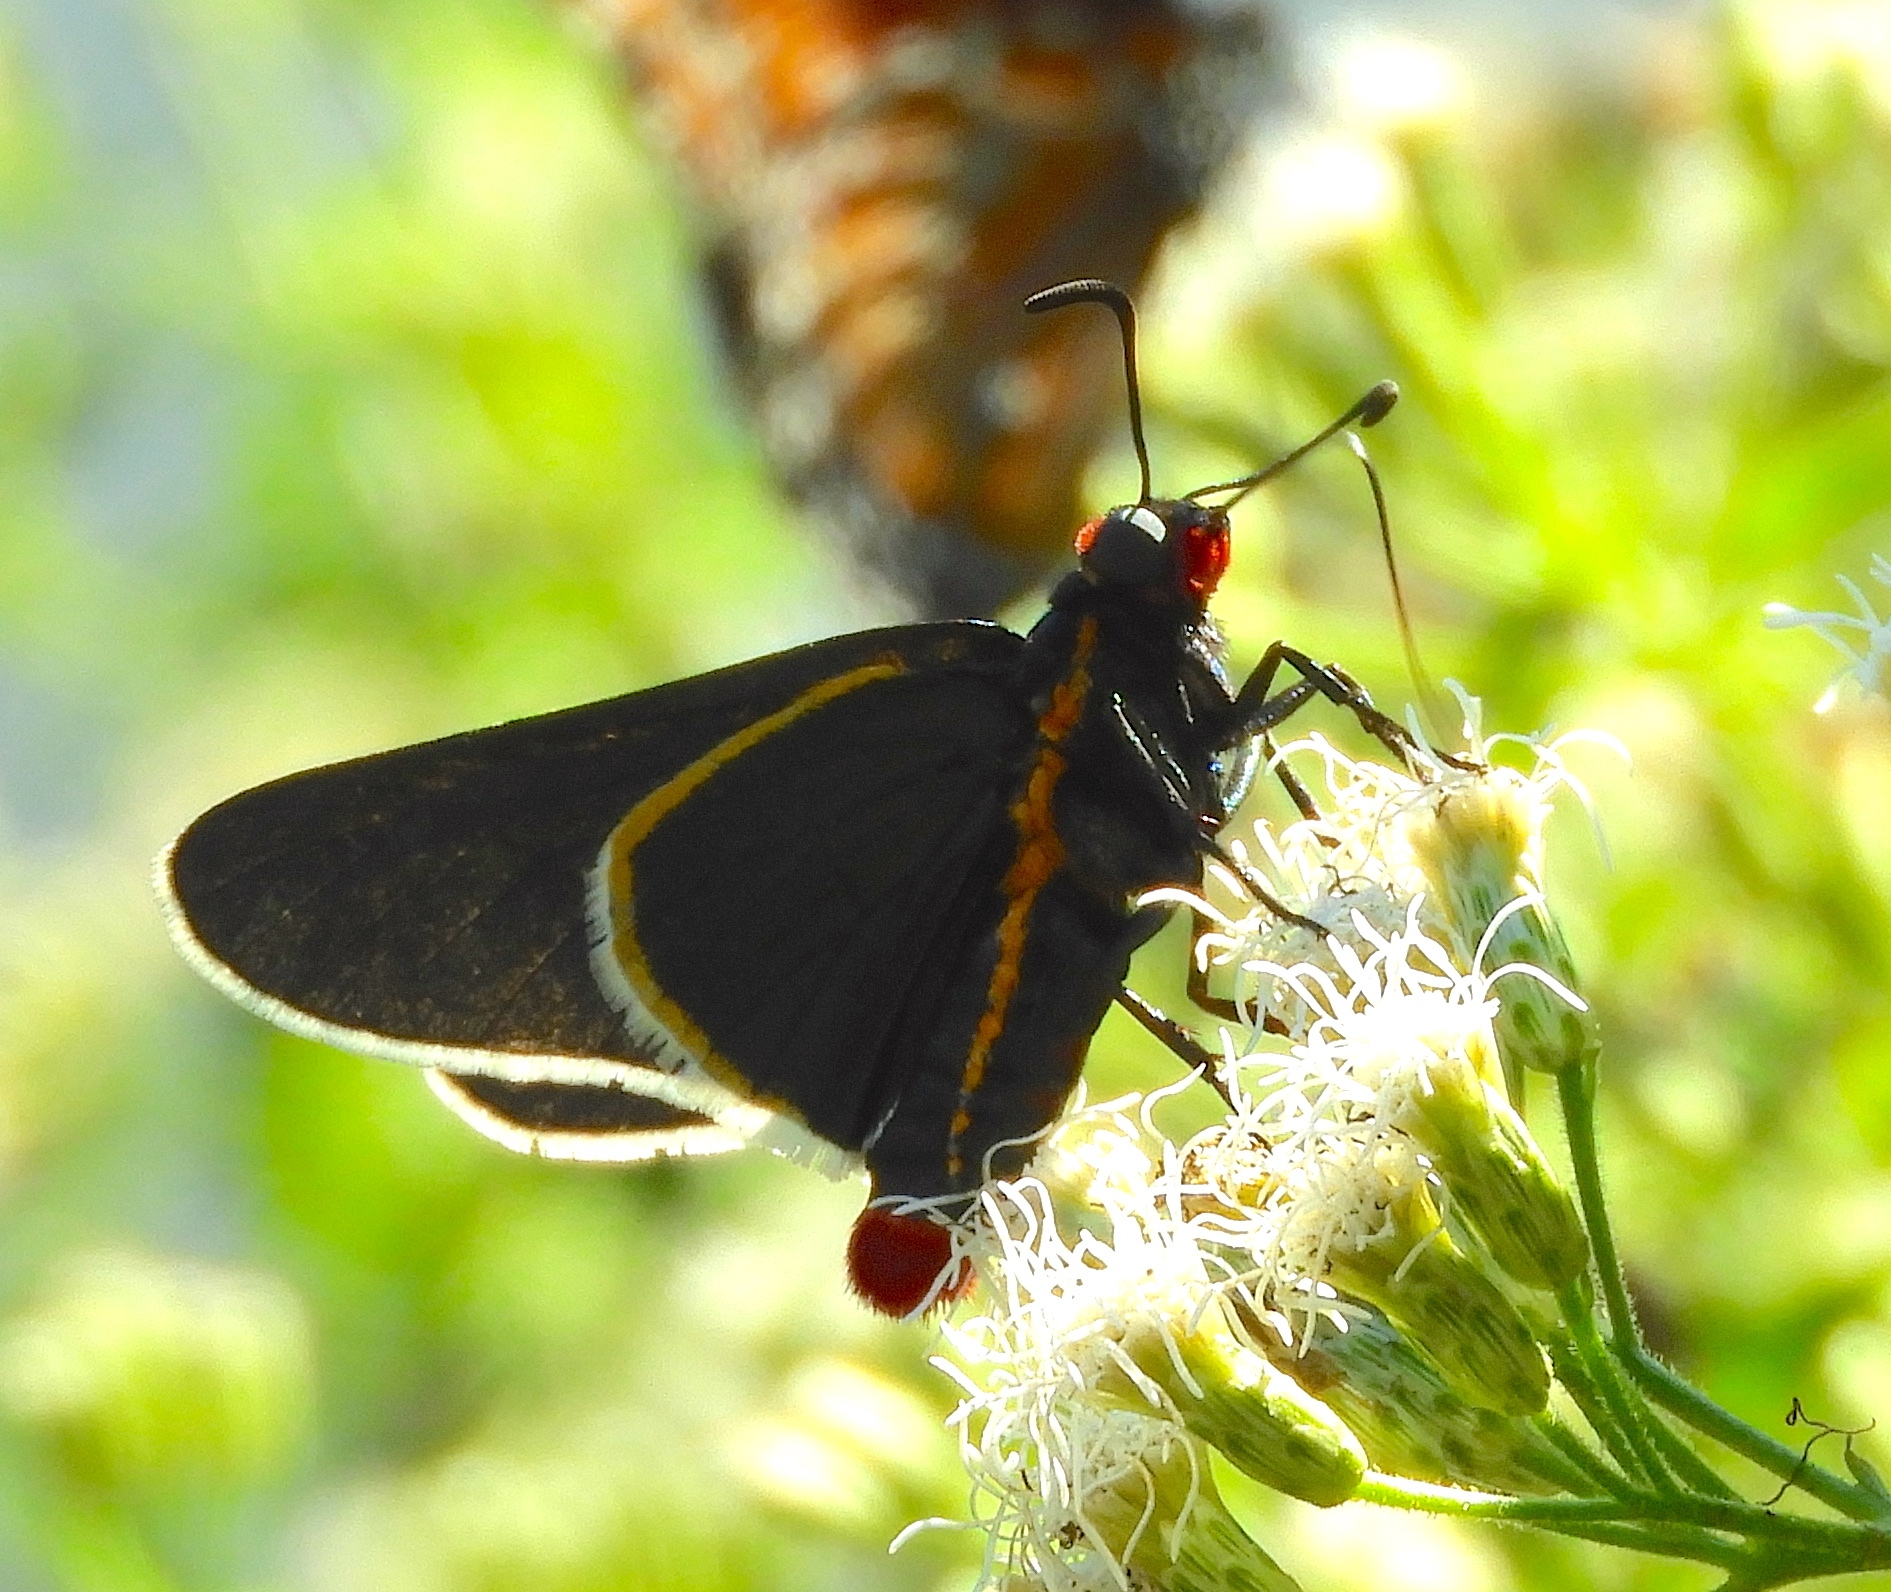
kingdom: Animalia
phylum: Arthropoda
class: Insecta
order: Lepidoptera
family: Hesperiidae
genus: Mysoria
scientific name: Mysoria affinis
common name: Red-collared firetip
